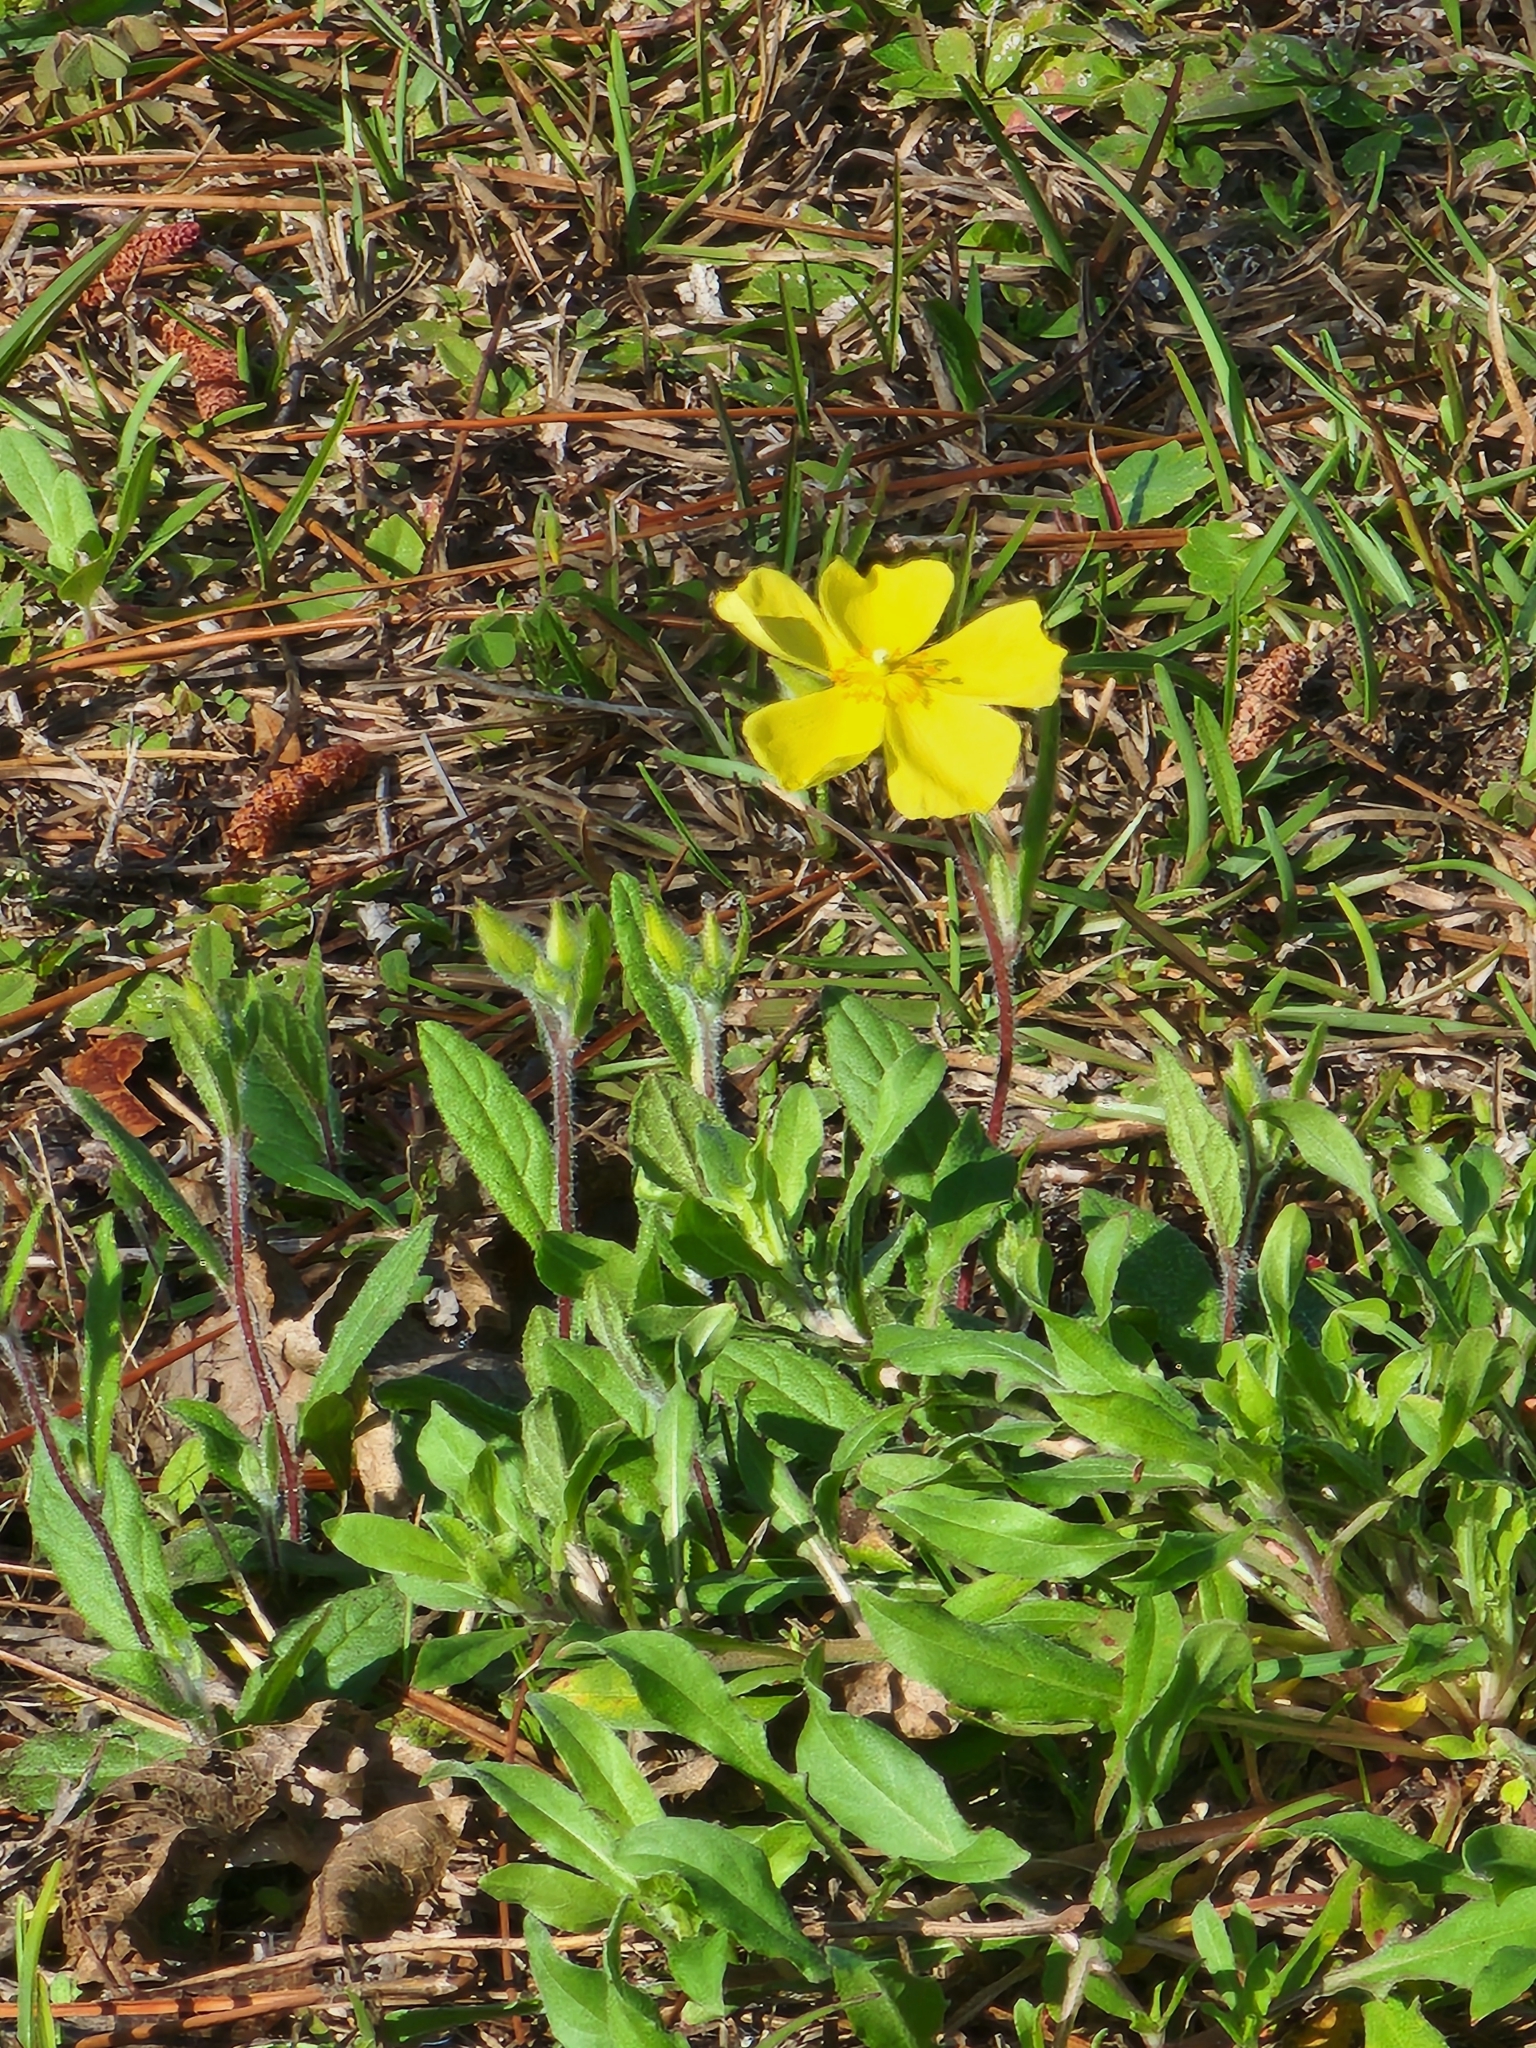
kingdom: Plantae
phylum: Tracheophyta
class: Magnoliopsida
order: Malvales
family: Cistaceae
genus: Crocanthemum
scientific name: Crocanthemum carolinianum
